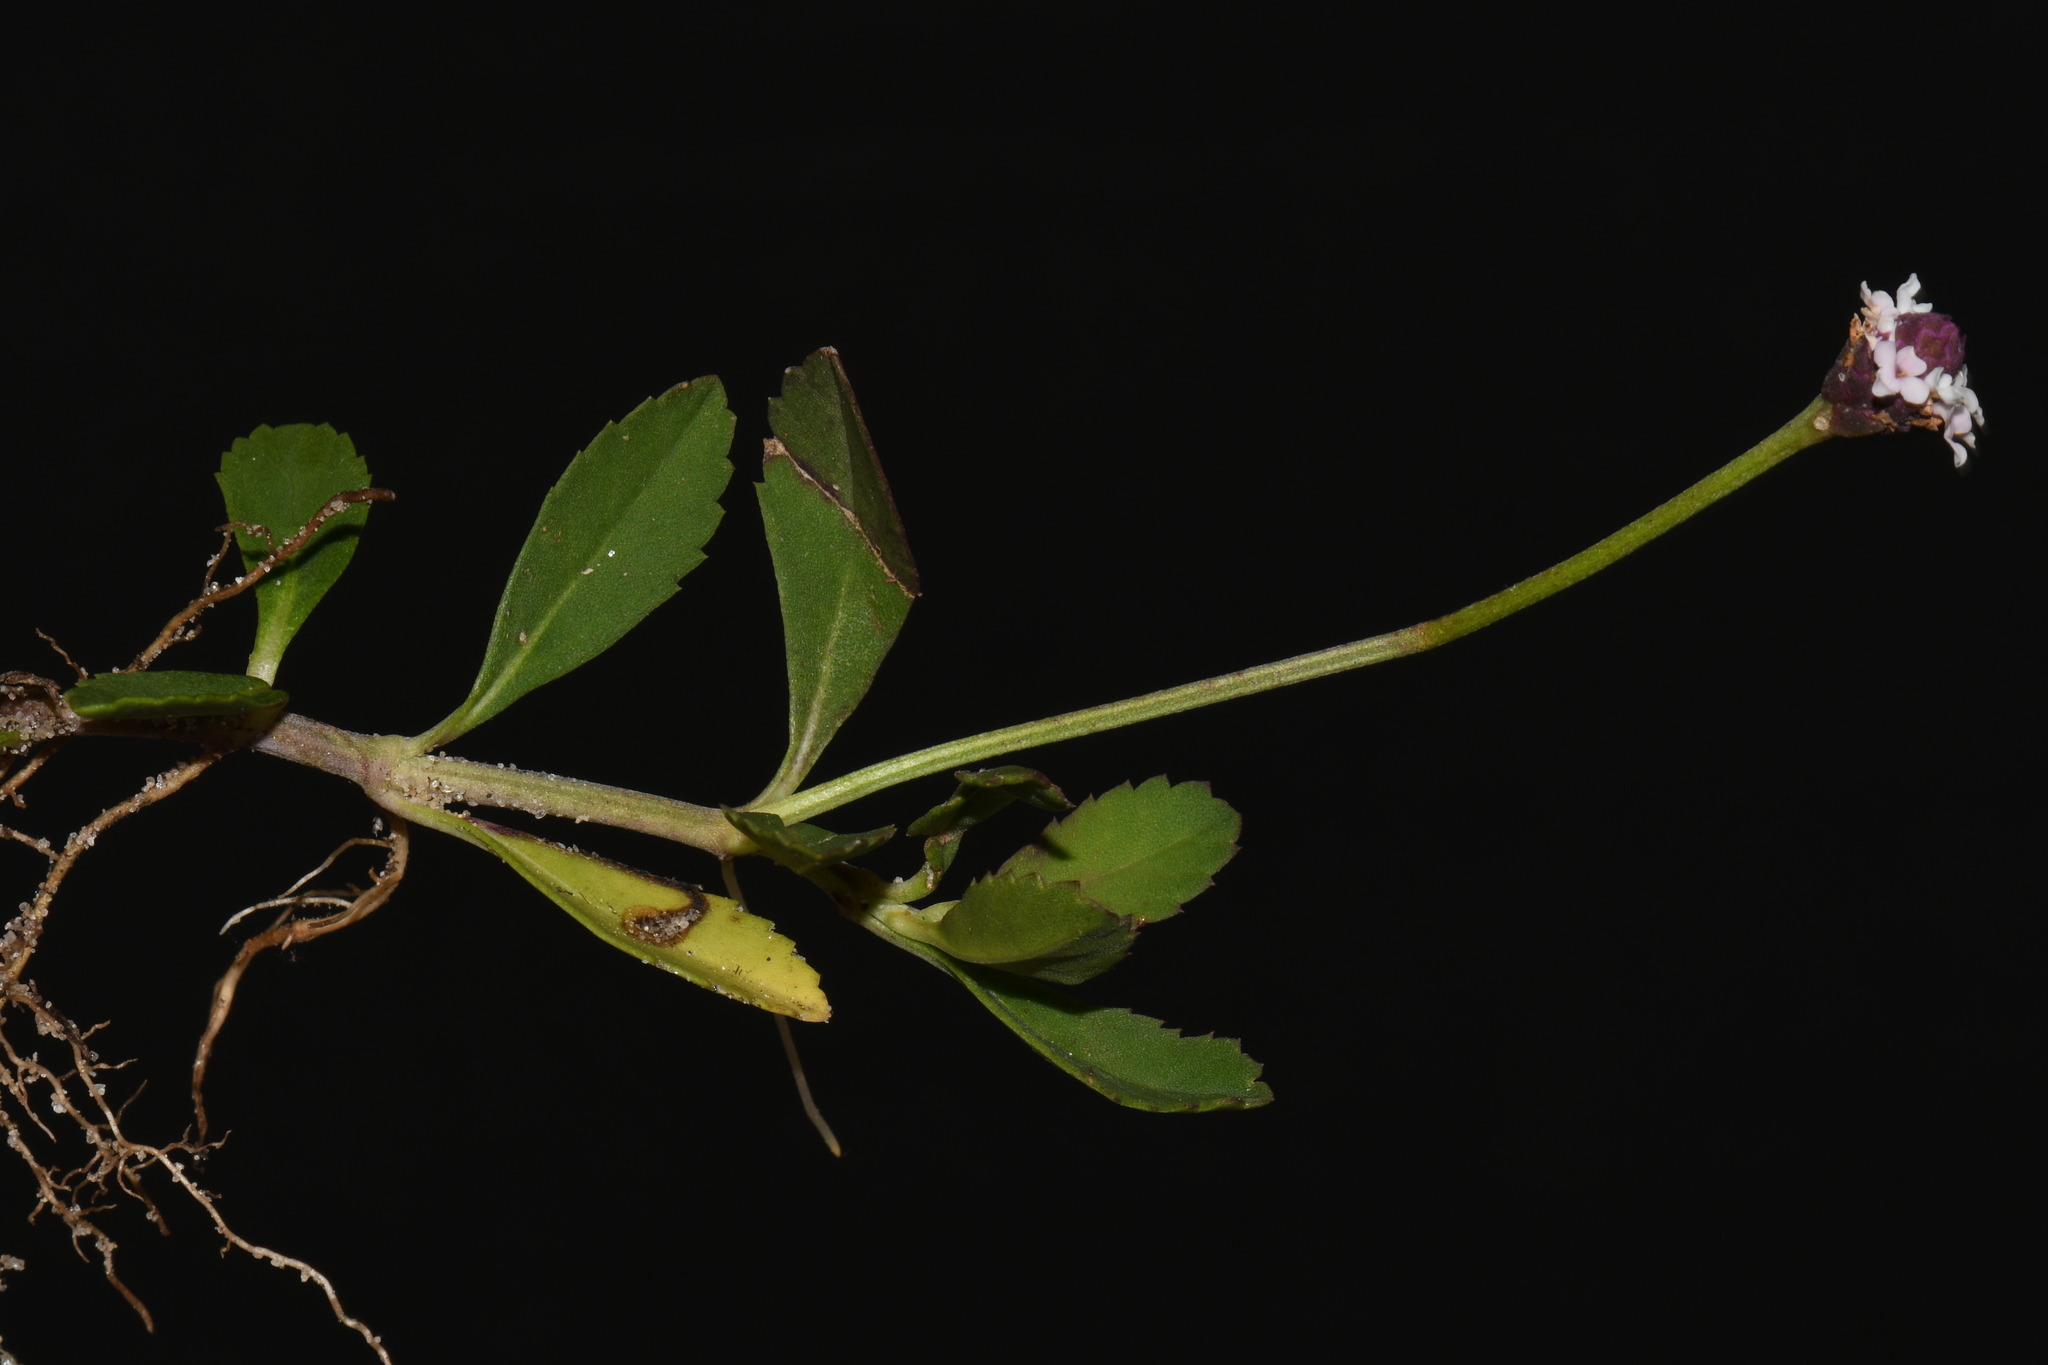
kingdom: Plantae
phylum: Tracheophyta
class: Magnoliopsida
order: Lamiales
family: Verbenaceae
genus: Phyla
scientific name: Phyla nodiflora
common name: Frogfruit
